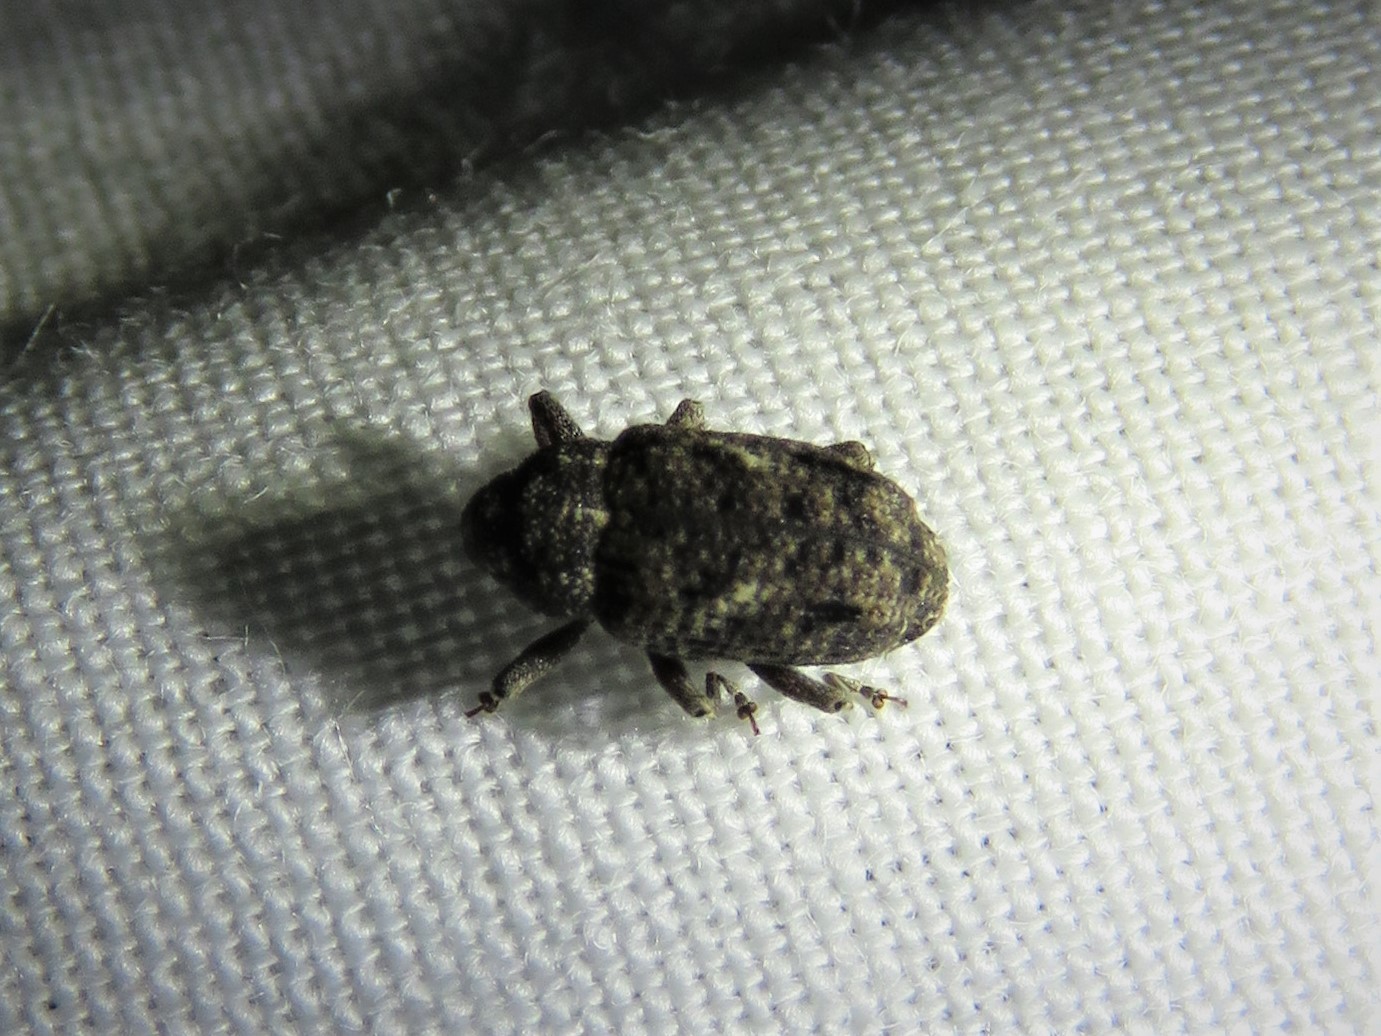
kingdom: Animalia
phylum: Arthropoda
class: Insecta
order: Coleoptera
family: Curculionidae
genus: Cophes
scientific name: Cophes oblongus
